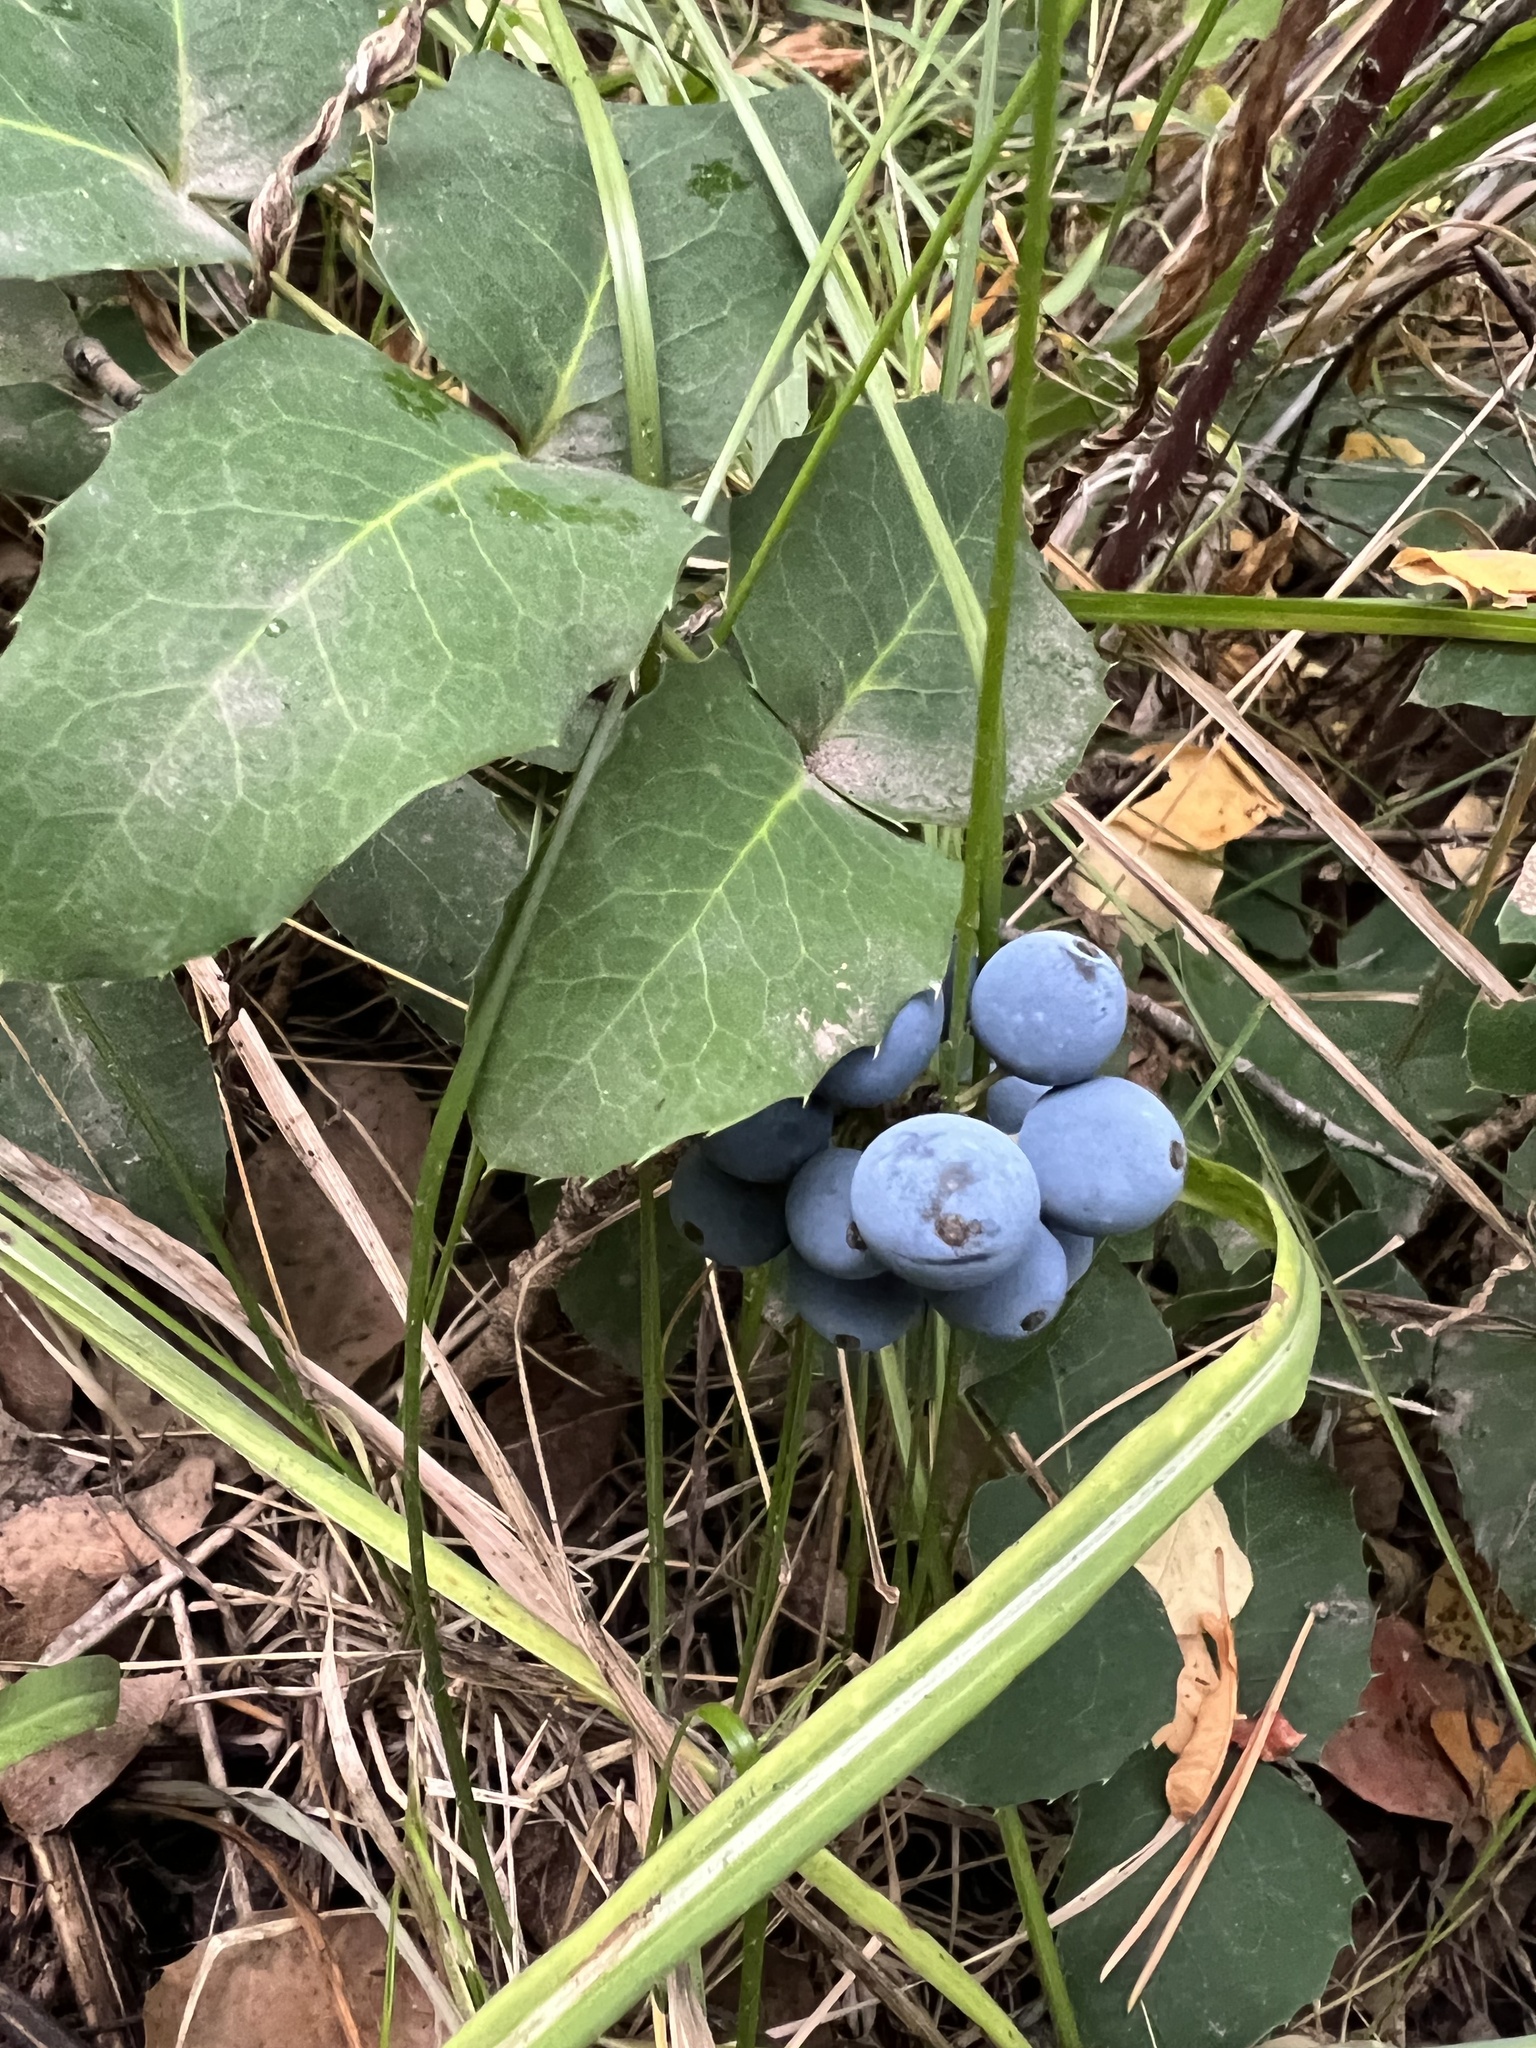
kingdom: Plantae
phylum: Tracheophyta
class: Magnoliopsida
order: Ranunculales
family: Berberidaceae
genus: Mahonia
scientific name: Mahonia repens
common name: Creeping oregon-grape
